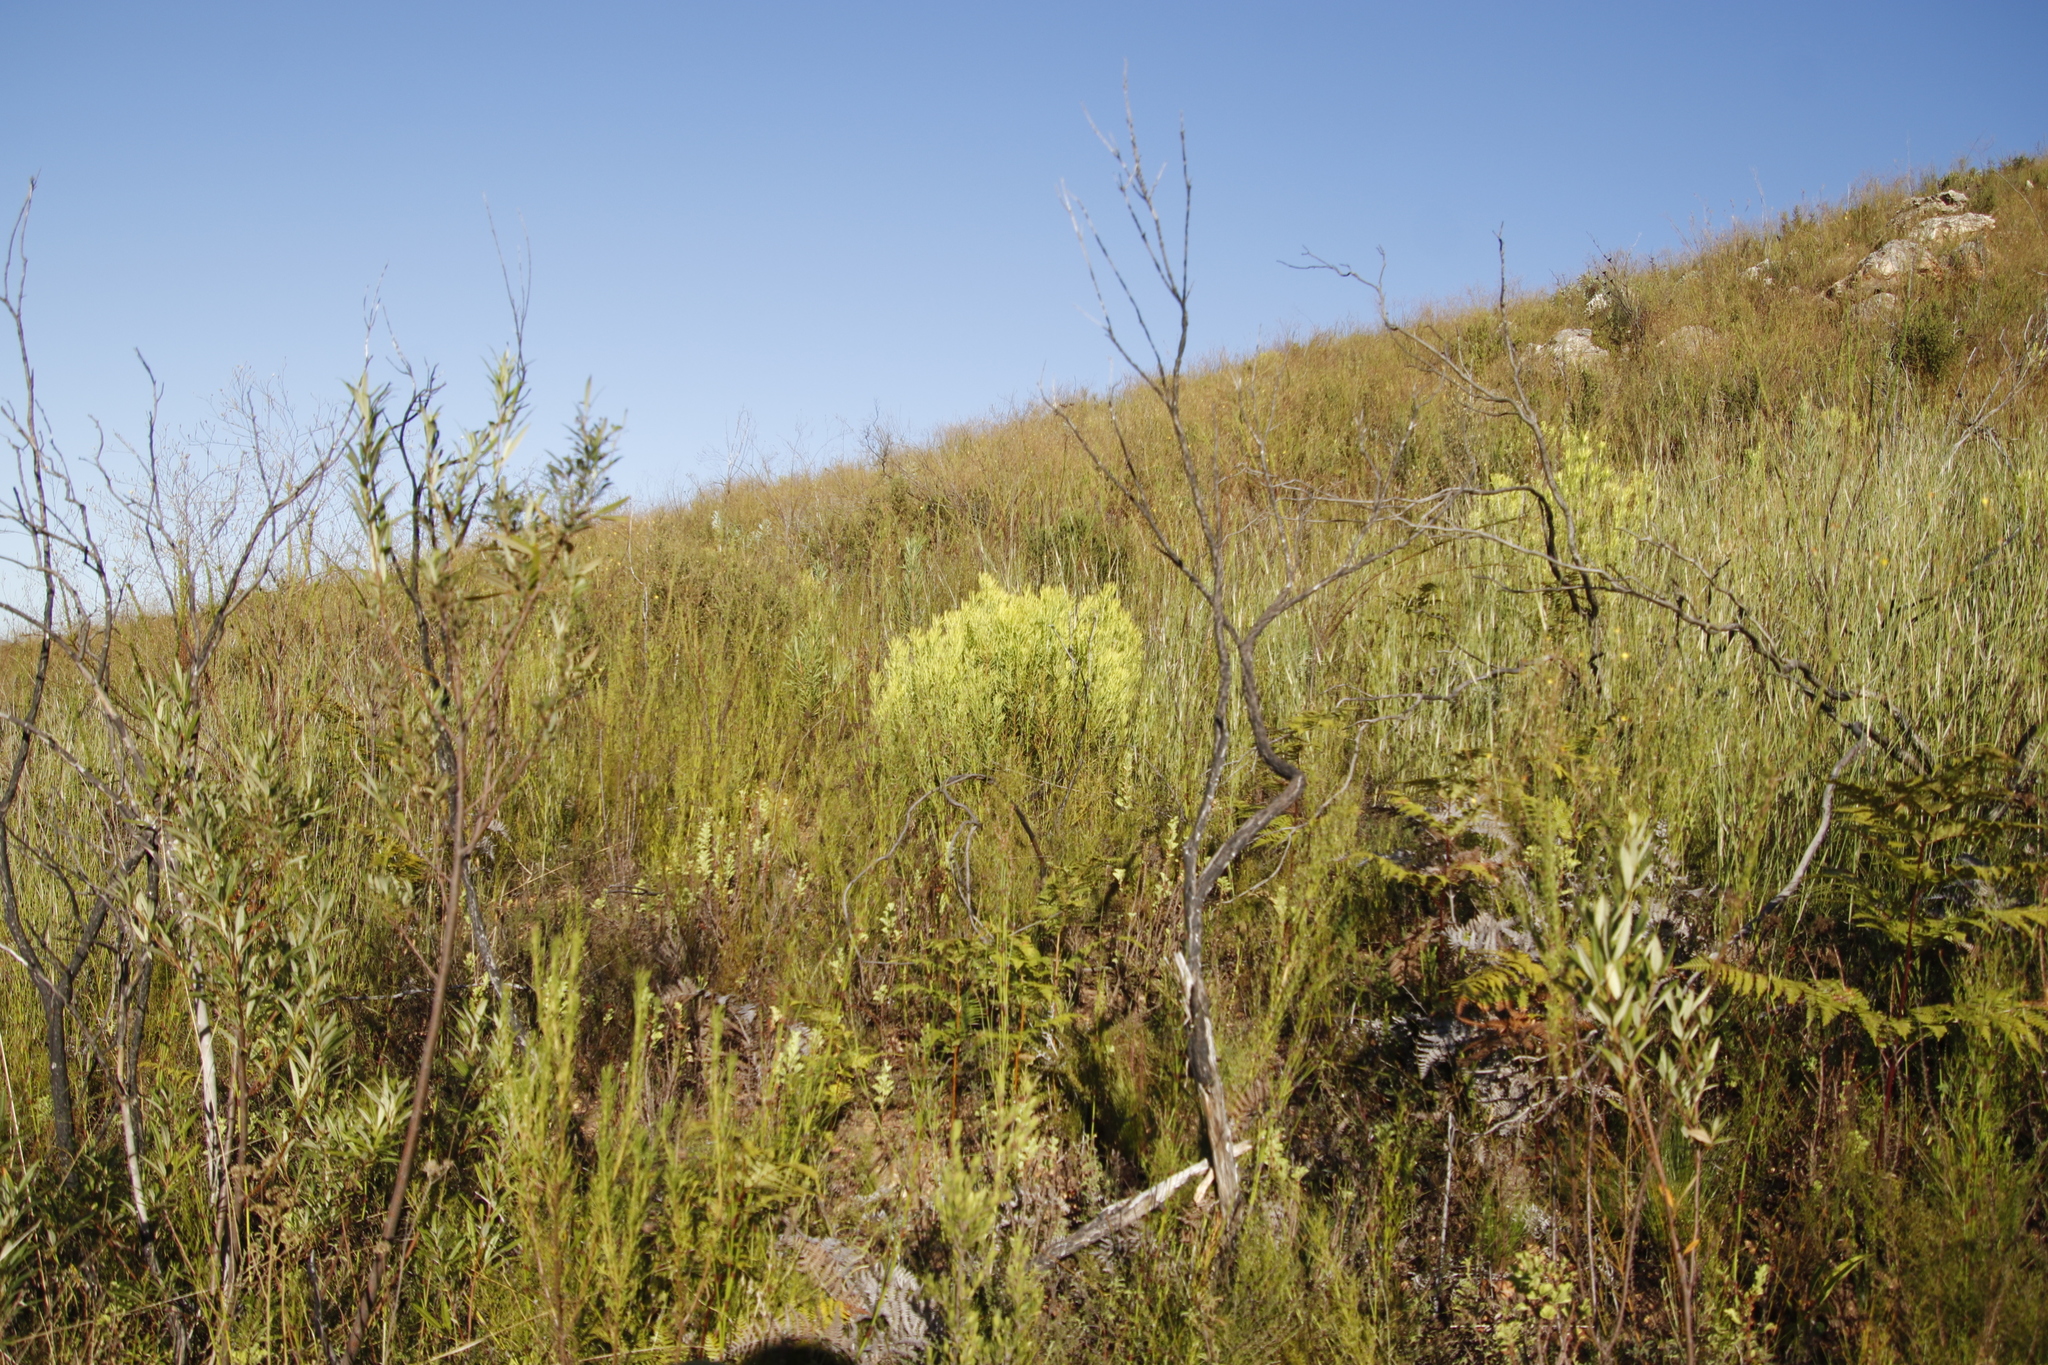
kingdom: Plantae
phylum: Tracheophyta
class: Magnoliopsida
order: Proteales
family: Proteaceae
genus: Leucadendron
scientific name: Leucadendron salignum
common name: Common sunshine conebush
